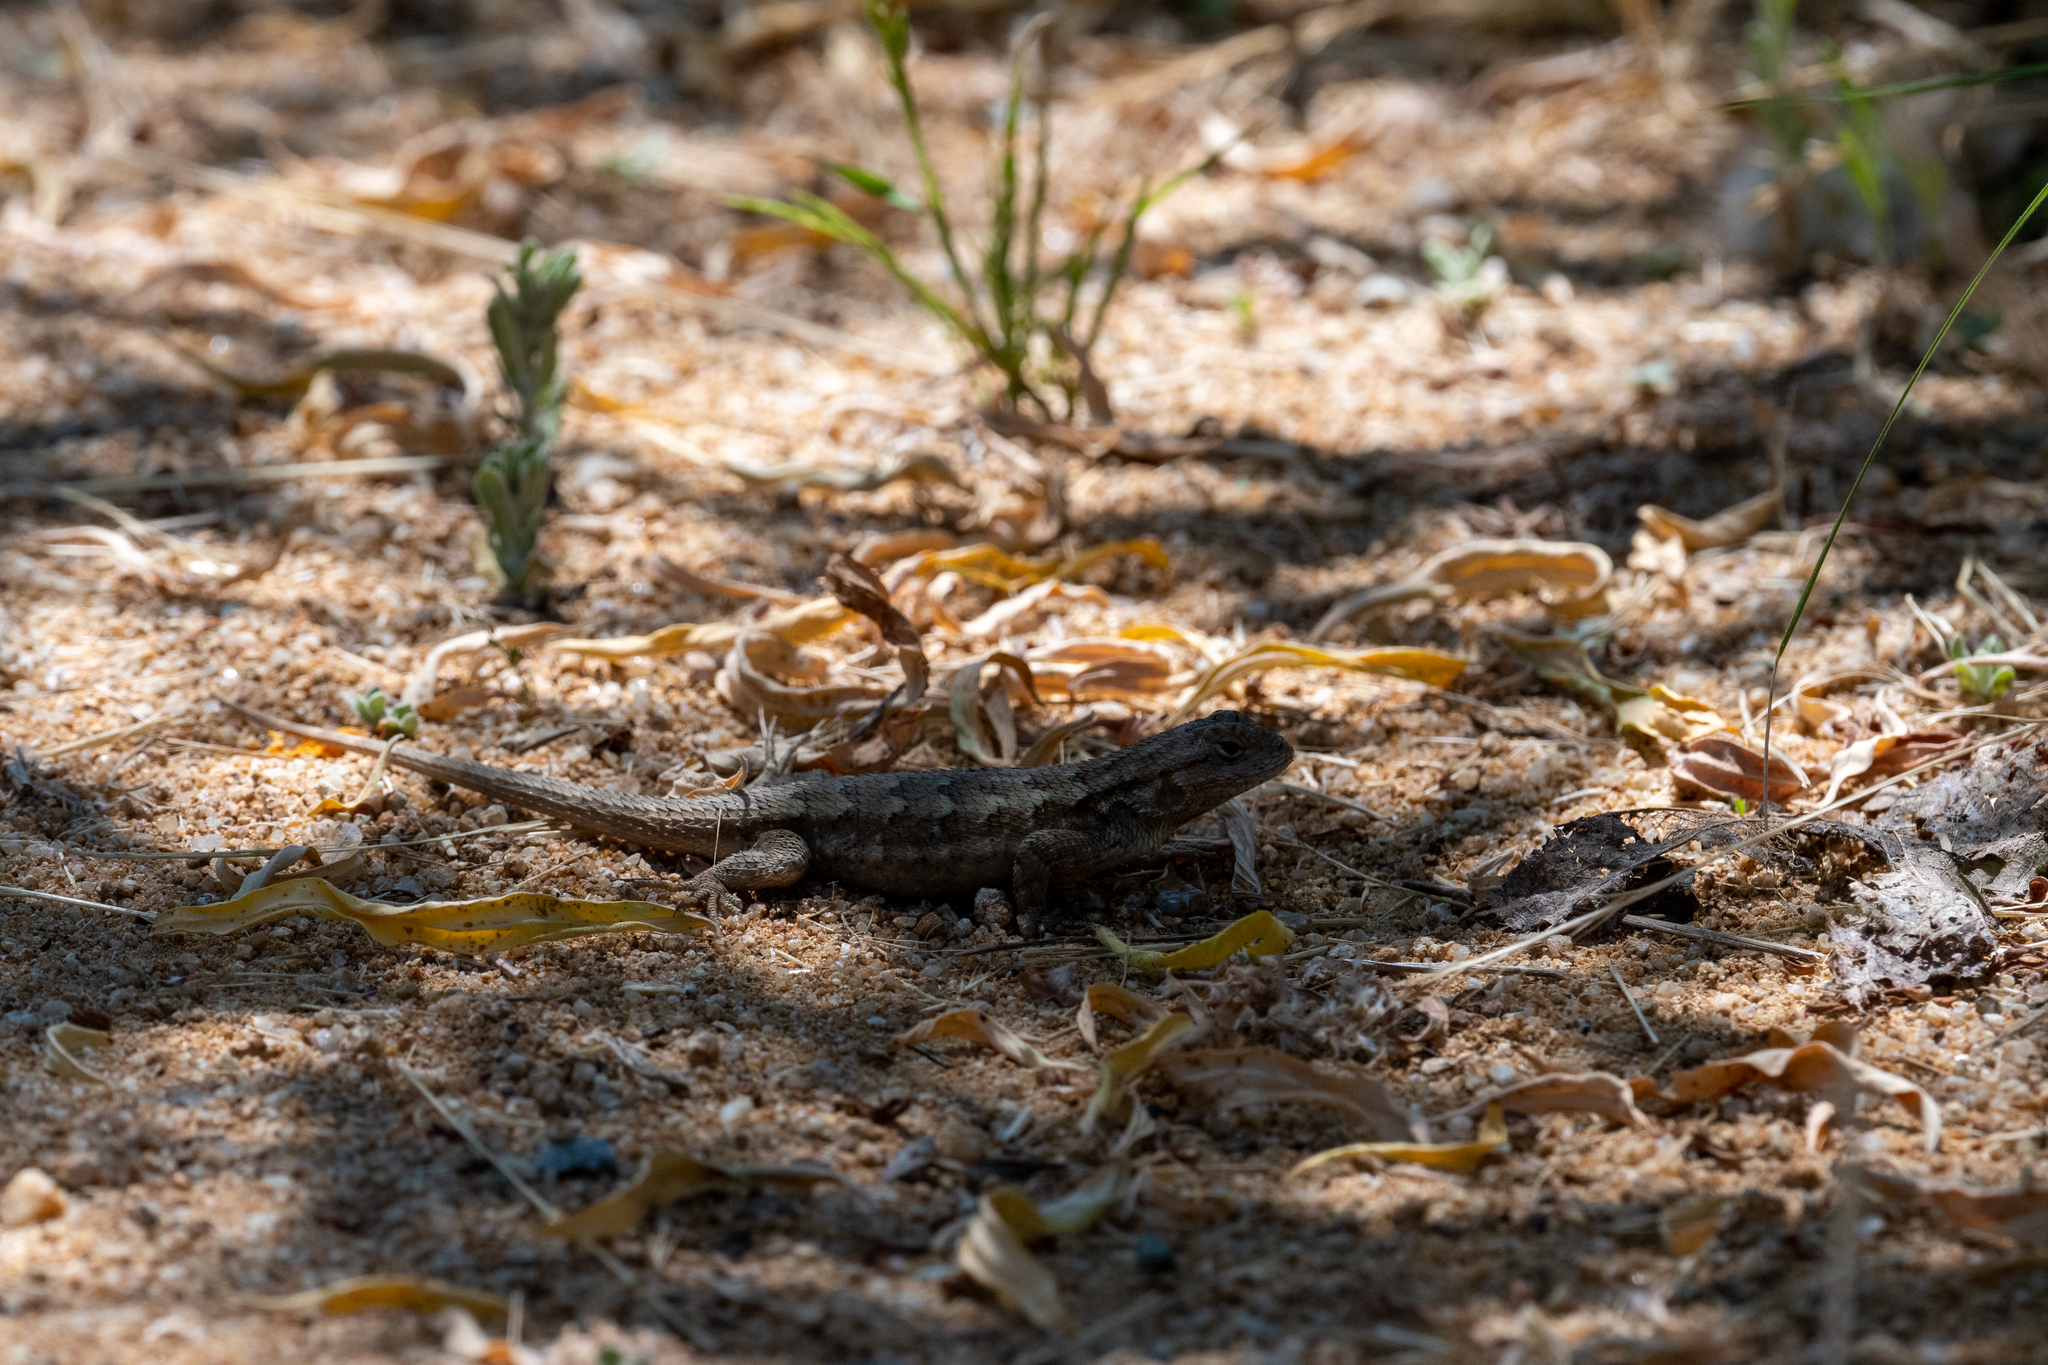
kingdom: Animalia
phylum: Chordata
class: Squamata
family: Phrynosomatidae
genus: Sceloporus
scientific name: Sceloporus occidentalis
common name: Western fence lizard
